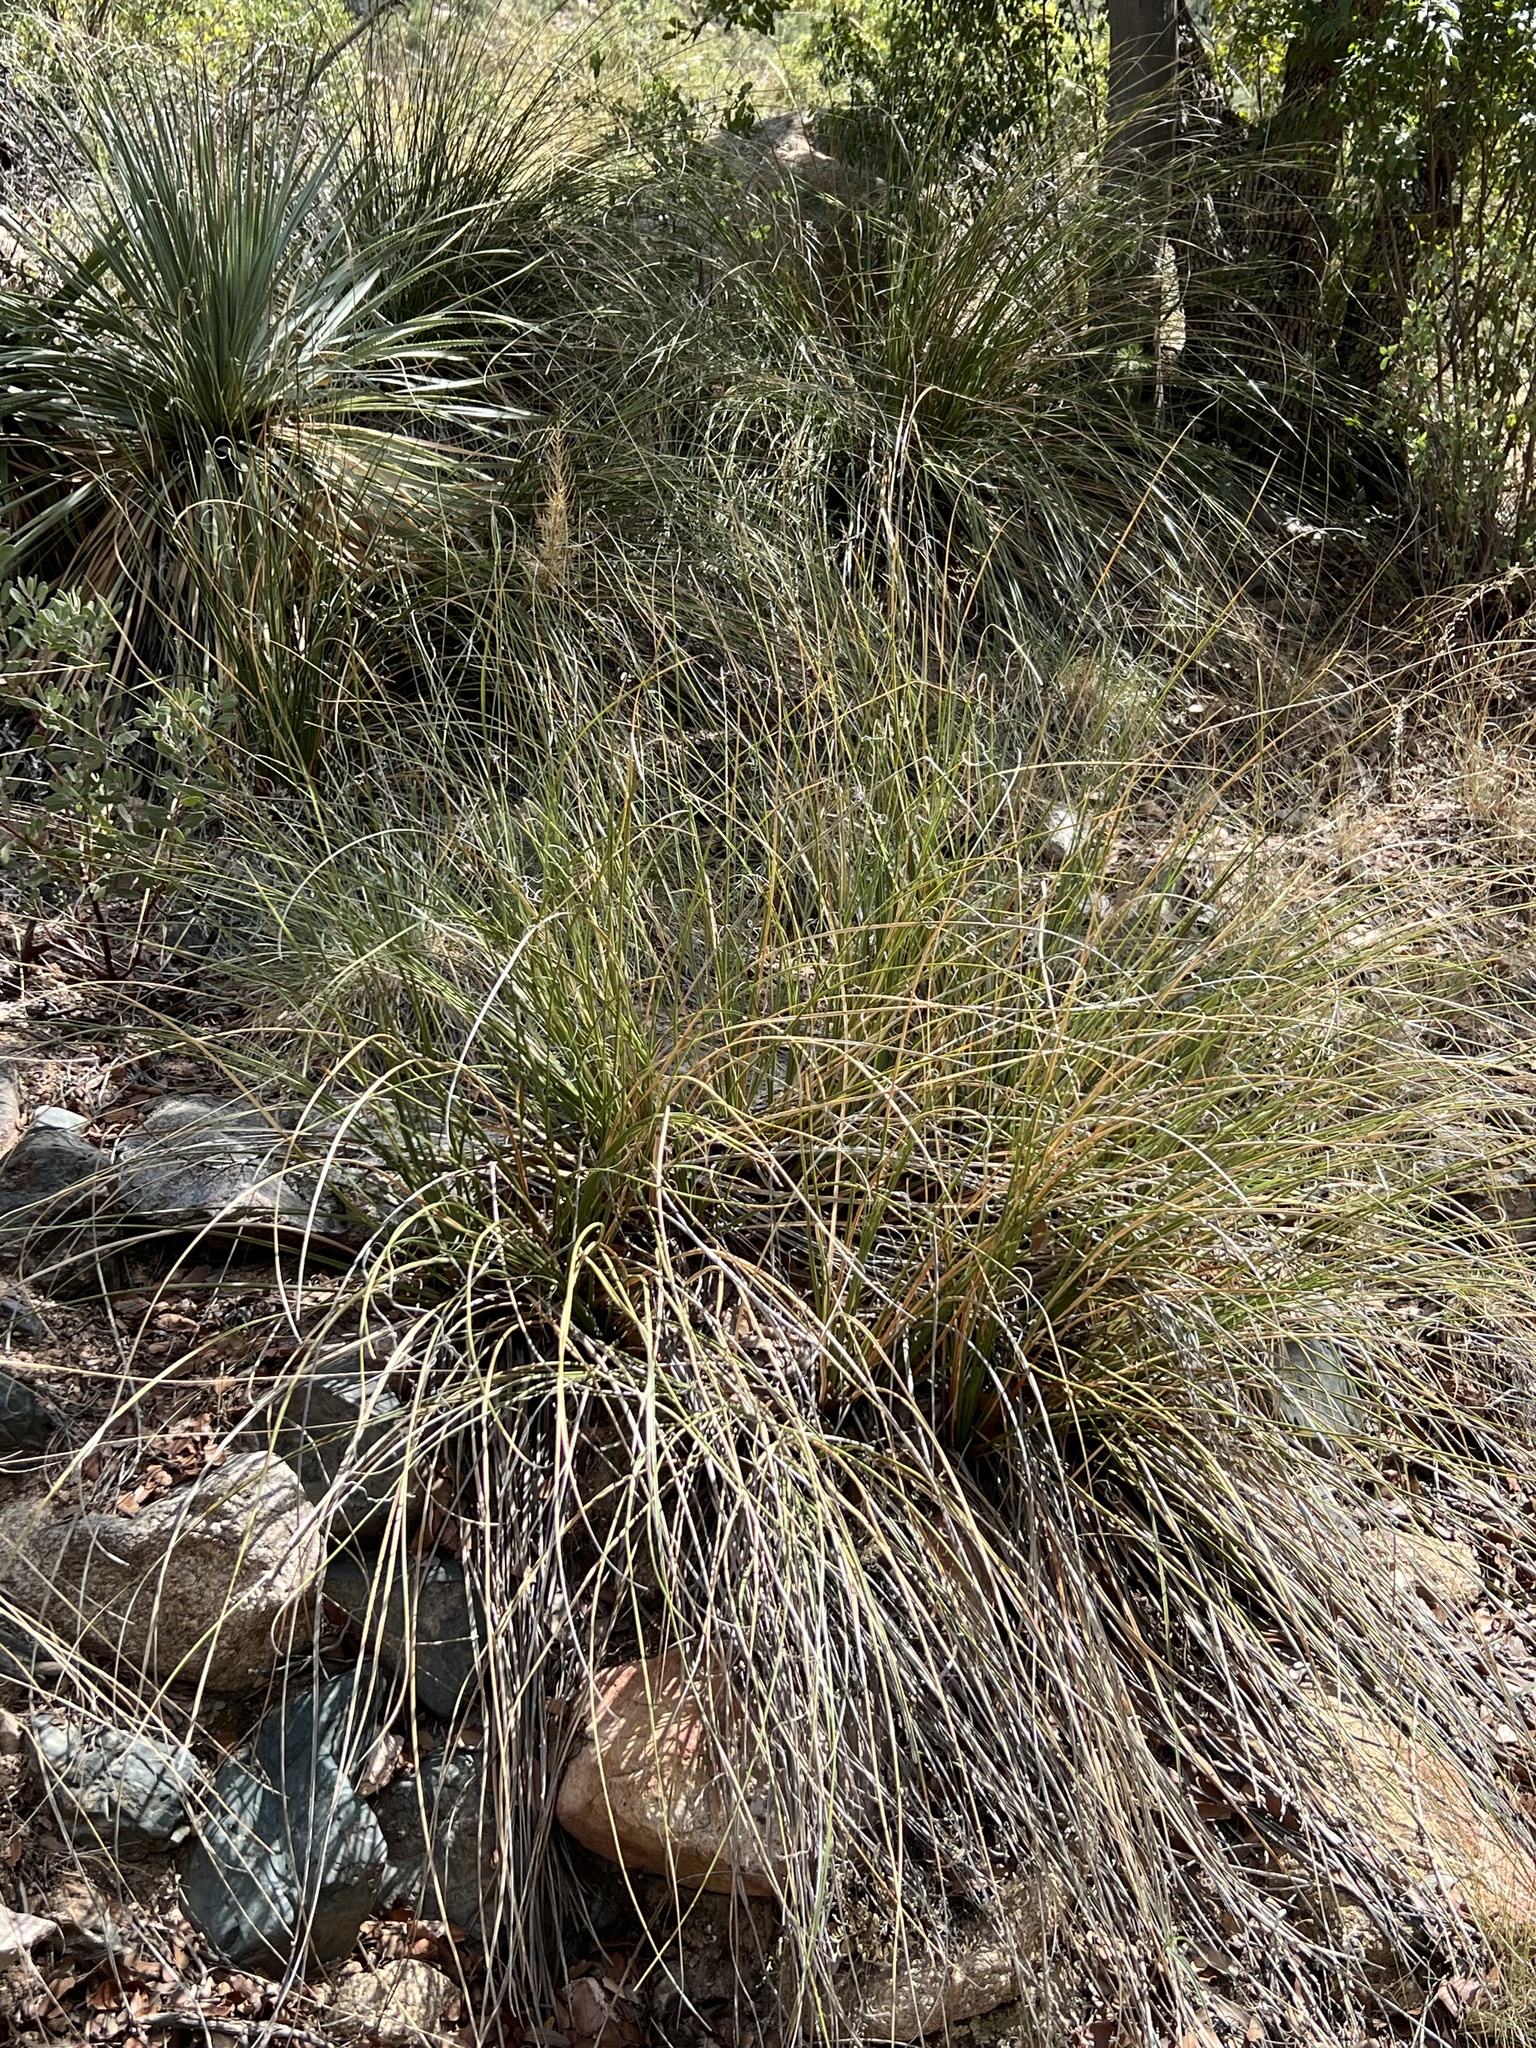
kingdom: Plantae
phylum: Tracheophyta
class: Liliopsida
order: Asparagales
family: Asparagaceae
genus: Nolina
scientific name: Nolina microcarpa
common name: Bear-grass
